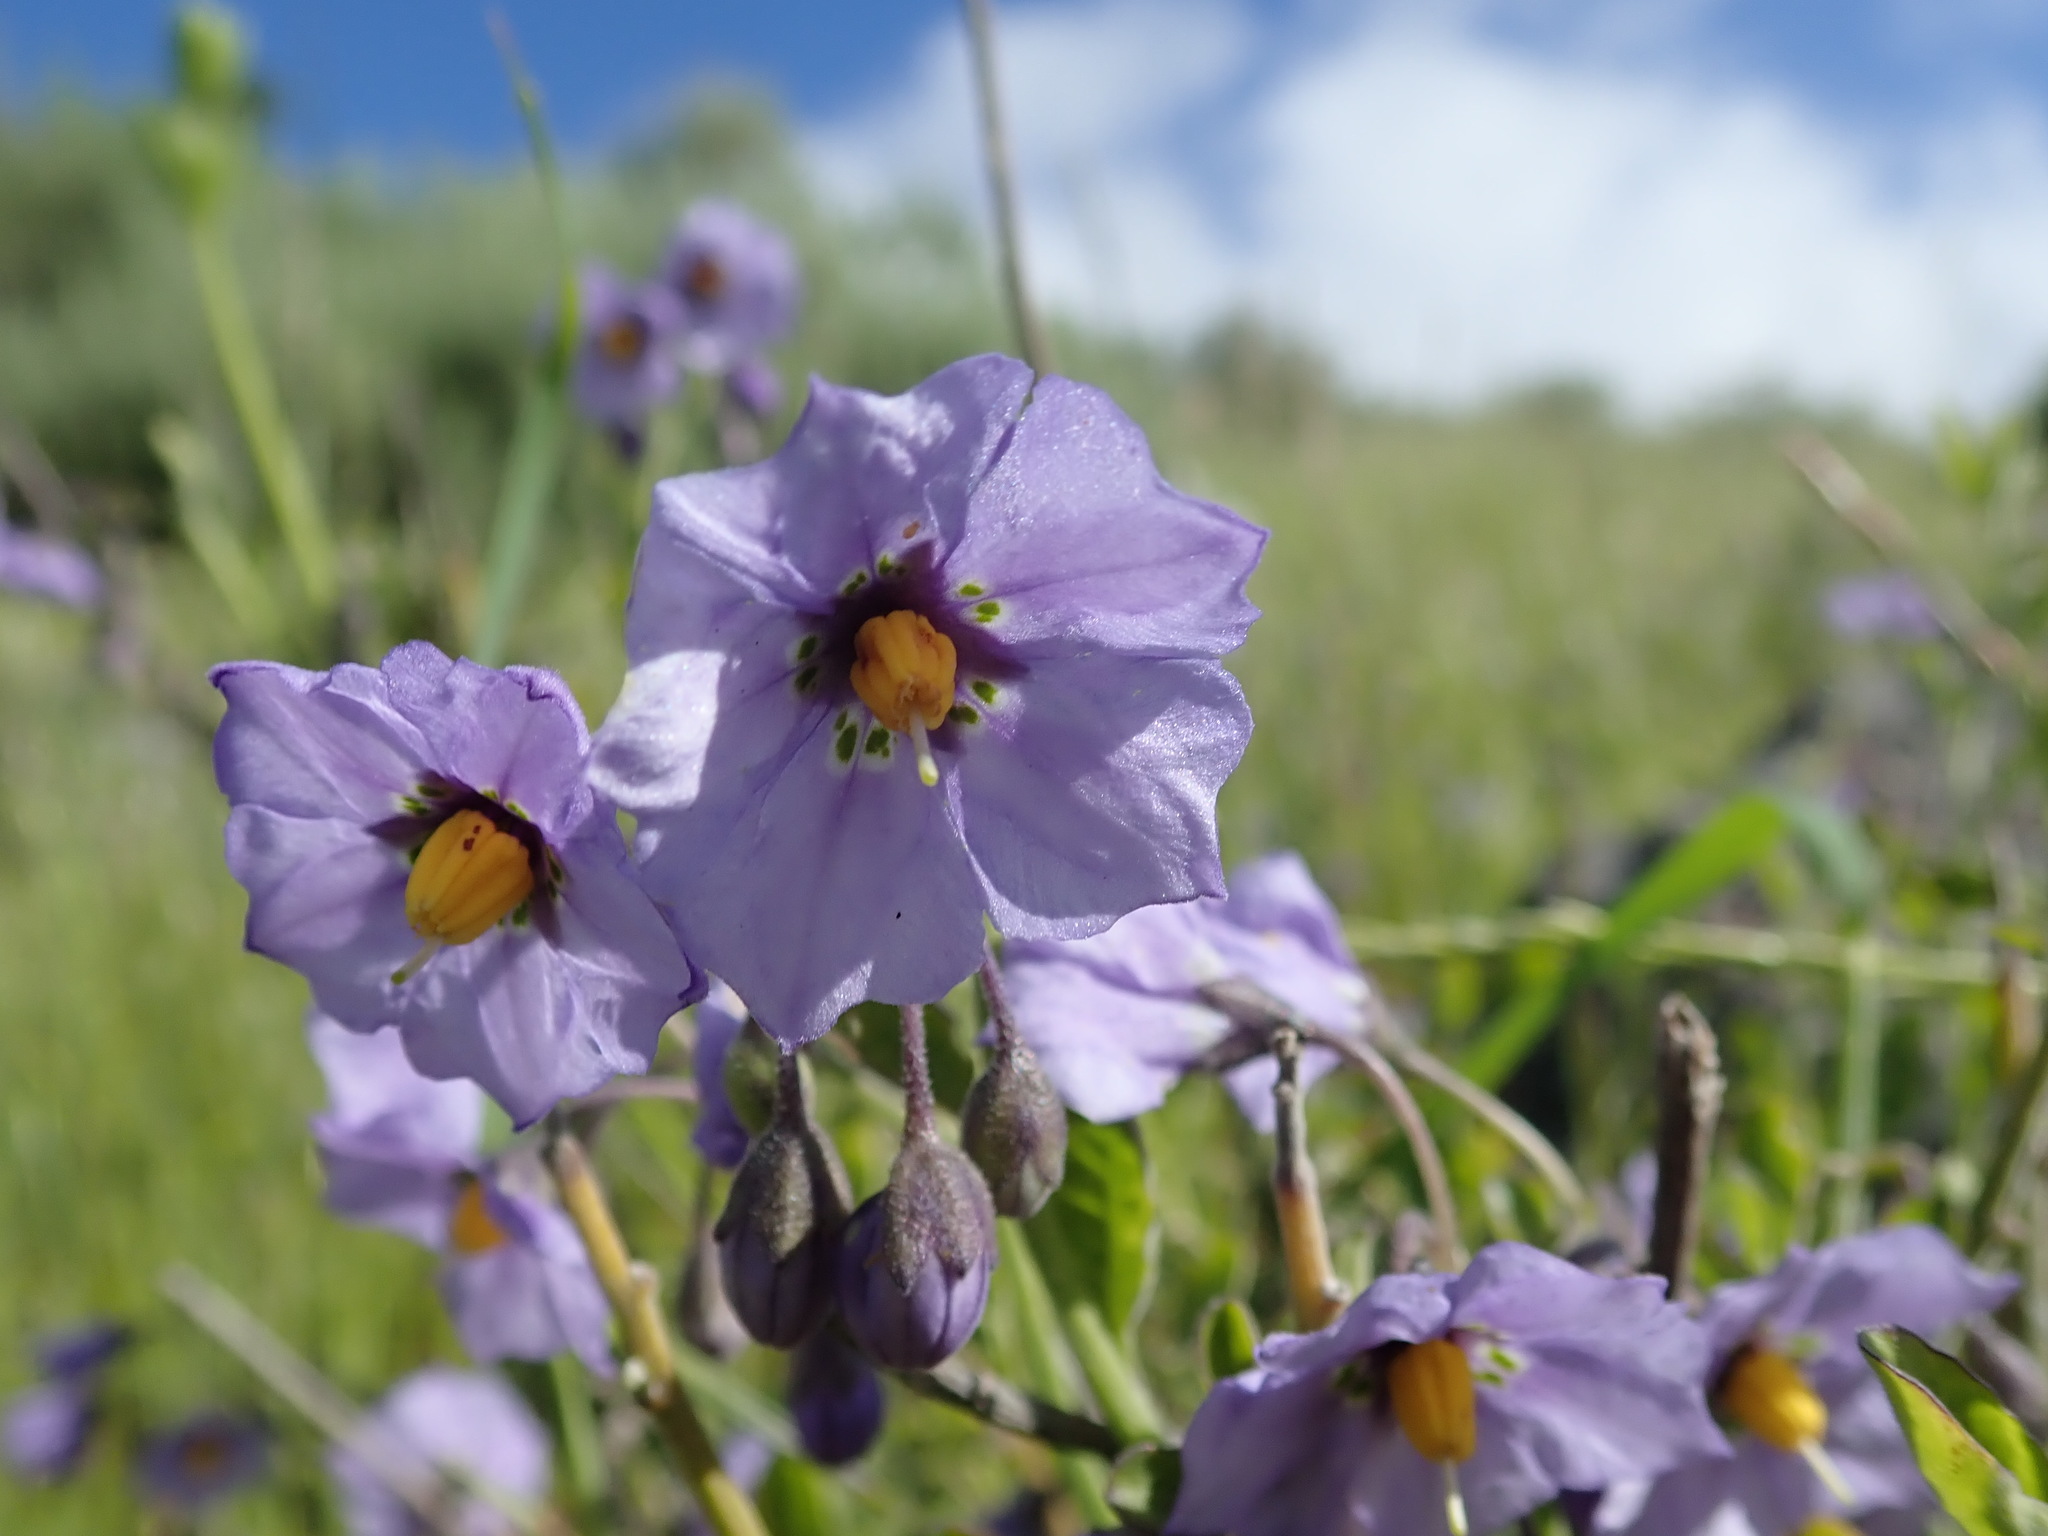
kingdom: Plantae
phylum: Tracheophyta
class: Magnoliopsida
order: Solanales
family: Solanaceae
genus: Solanum
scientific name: Solanum umbelliferum
